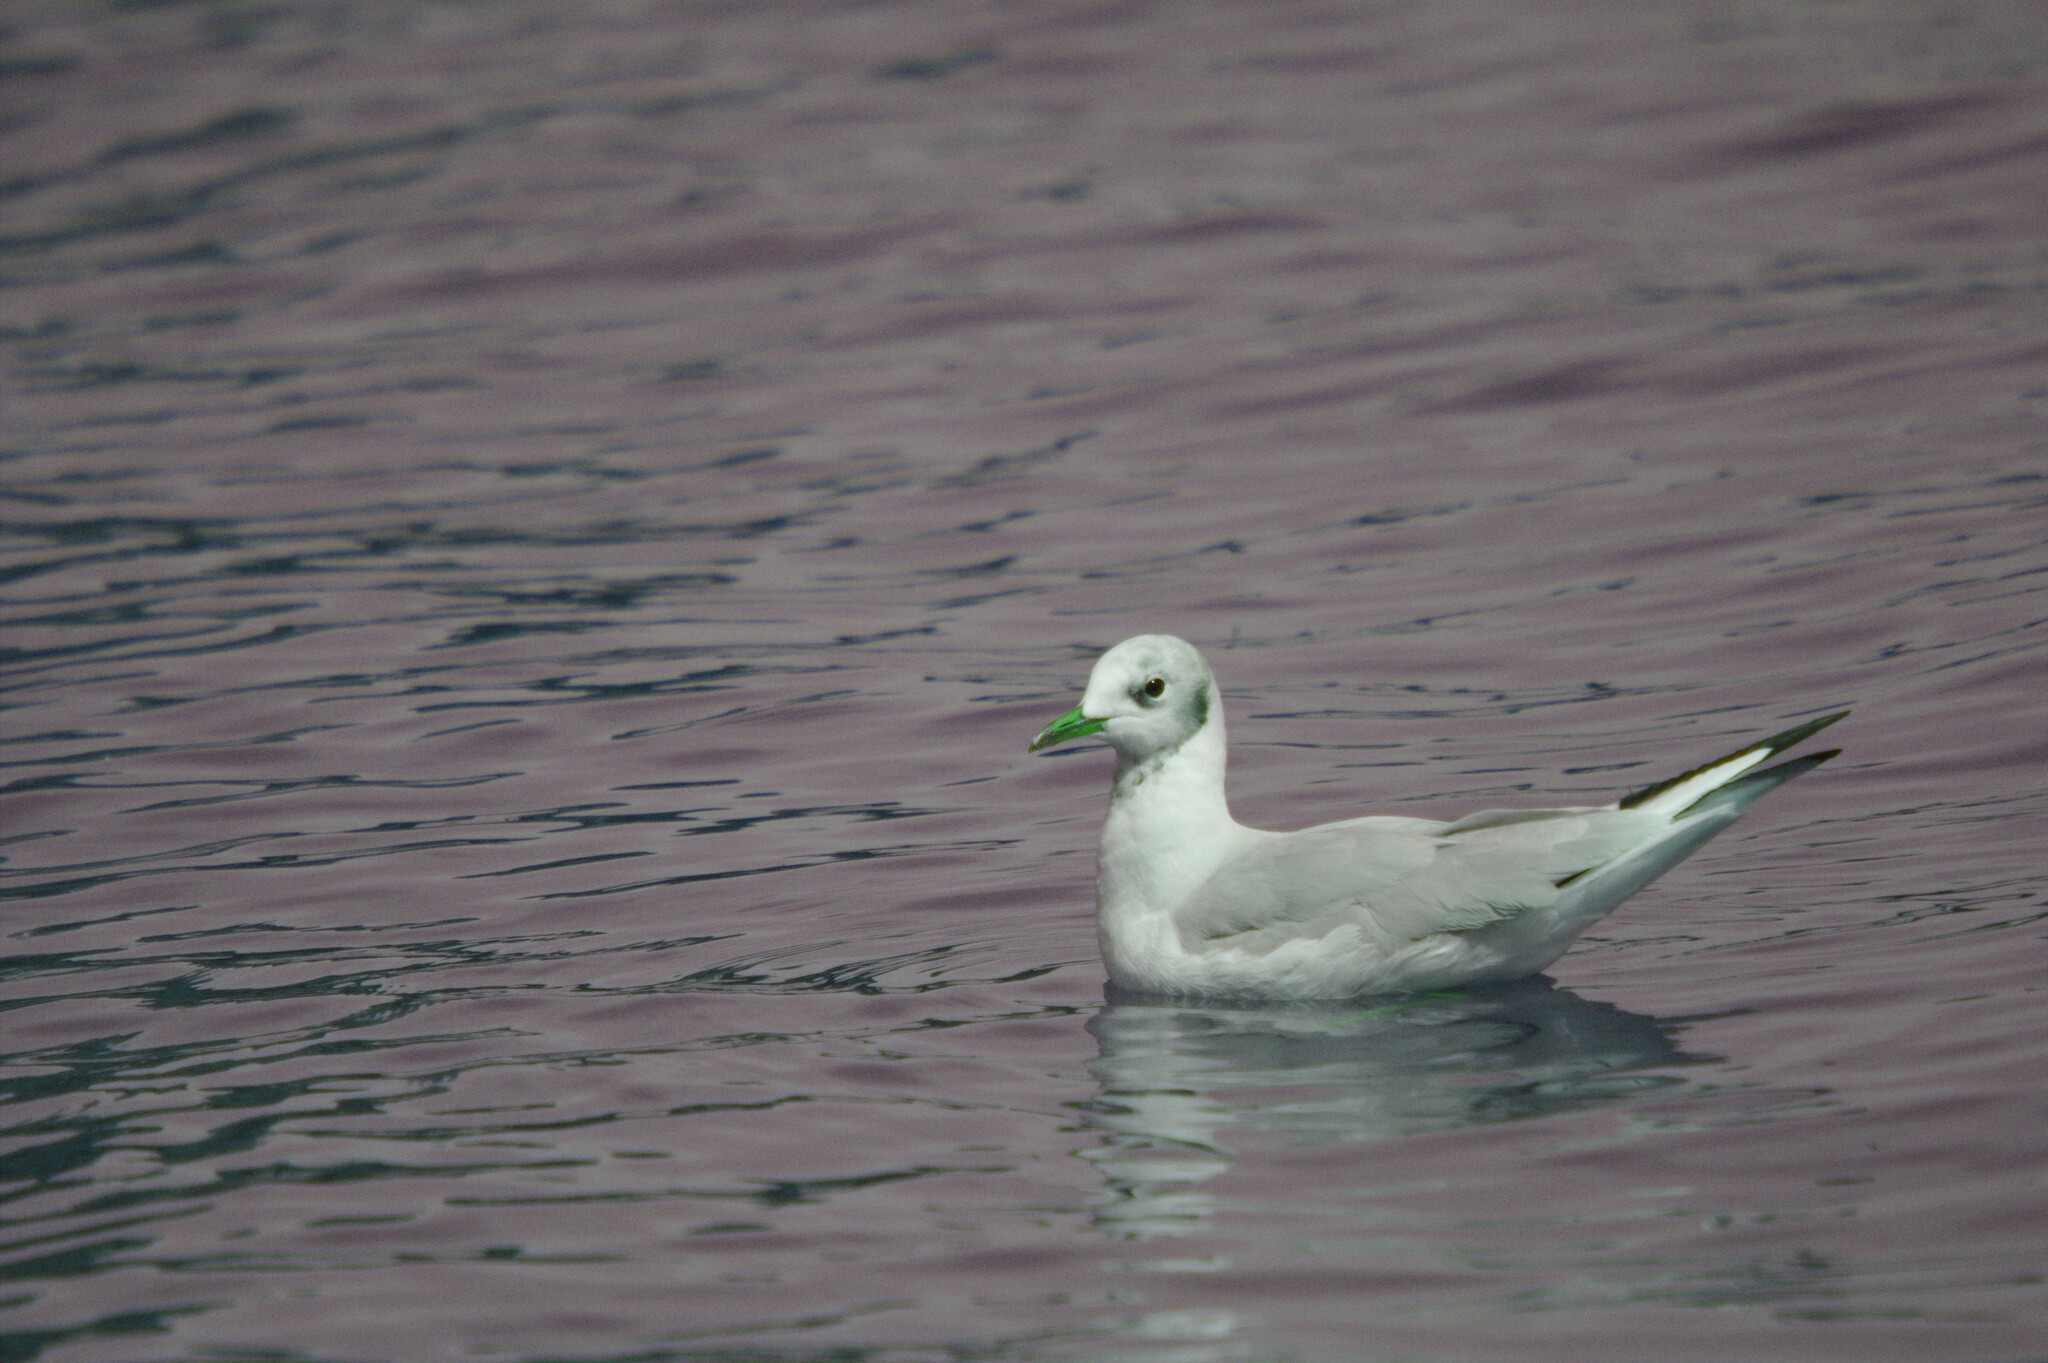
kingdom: Animalia
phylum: Chordata
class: Aves
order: Charadriiformes
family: Laridae
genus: Chroicocephalus
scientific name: Chroicocephalus ridibundus
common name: Black-headed gull
